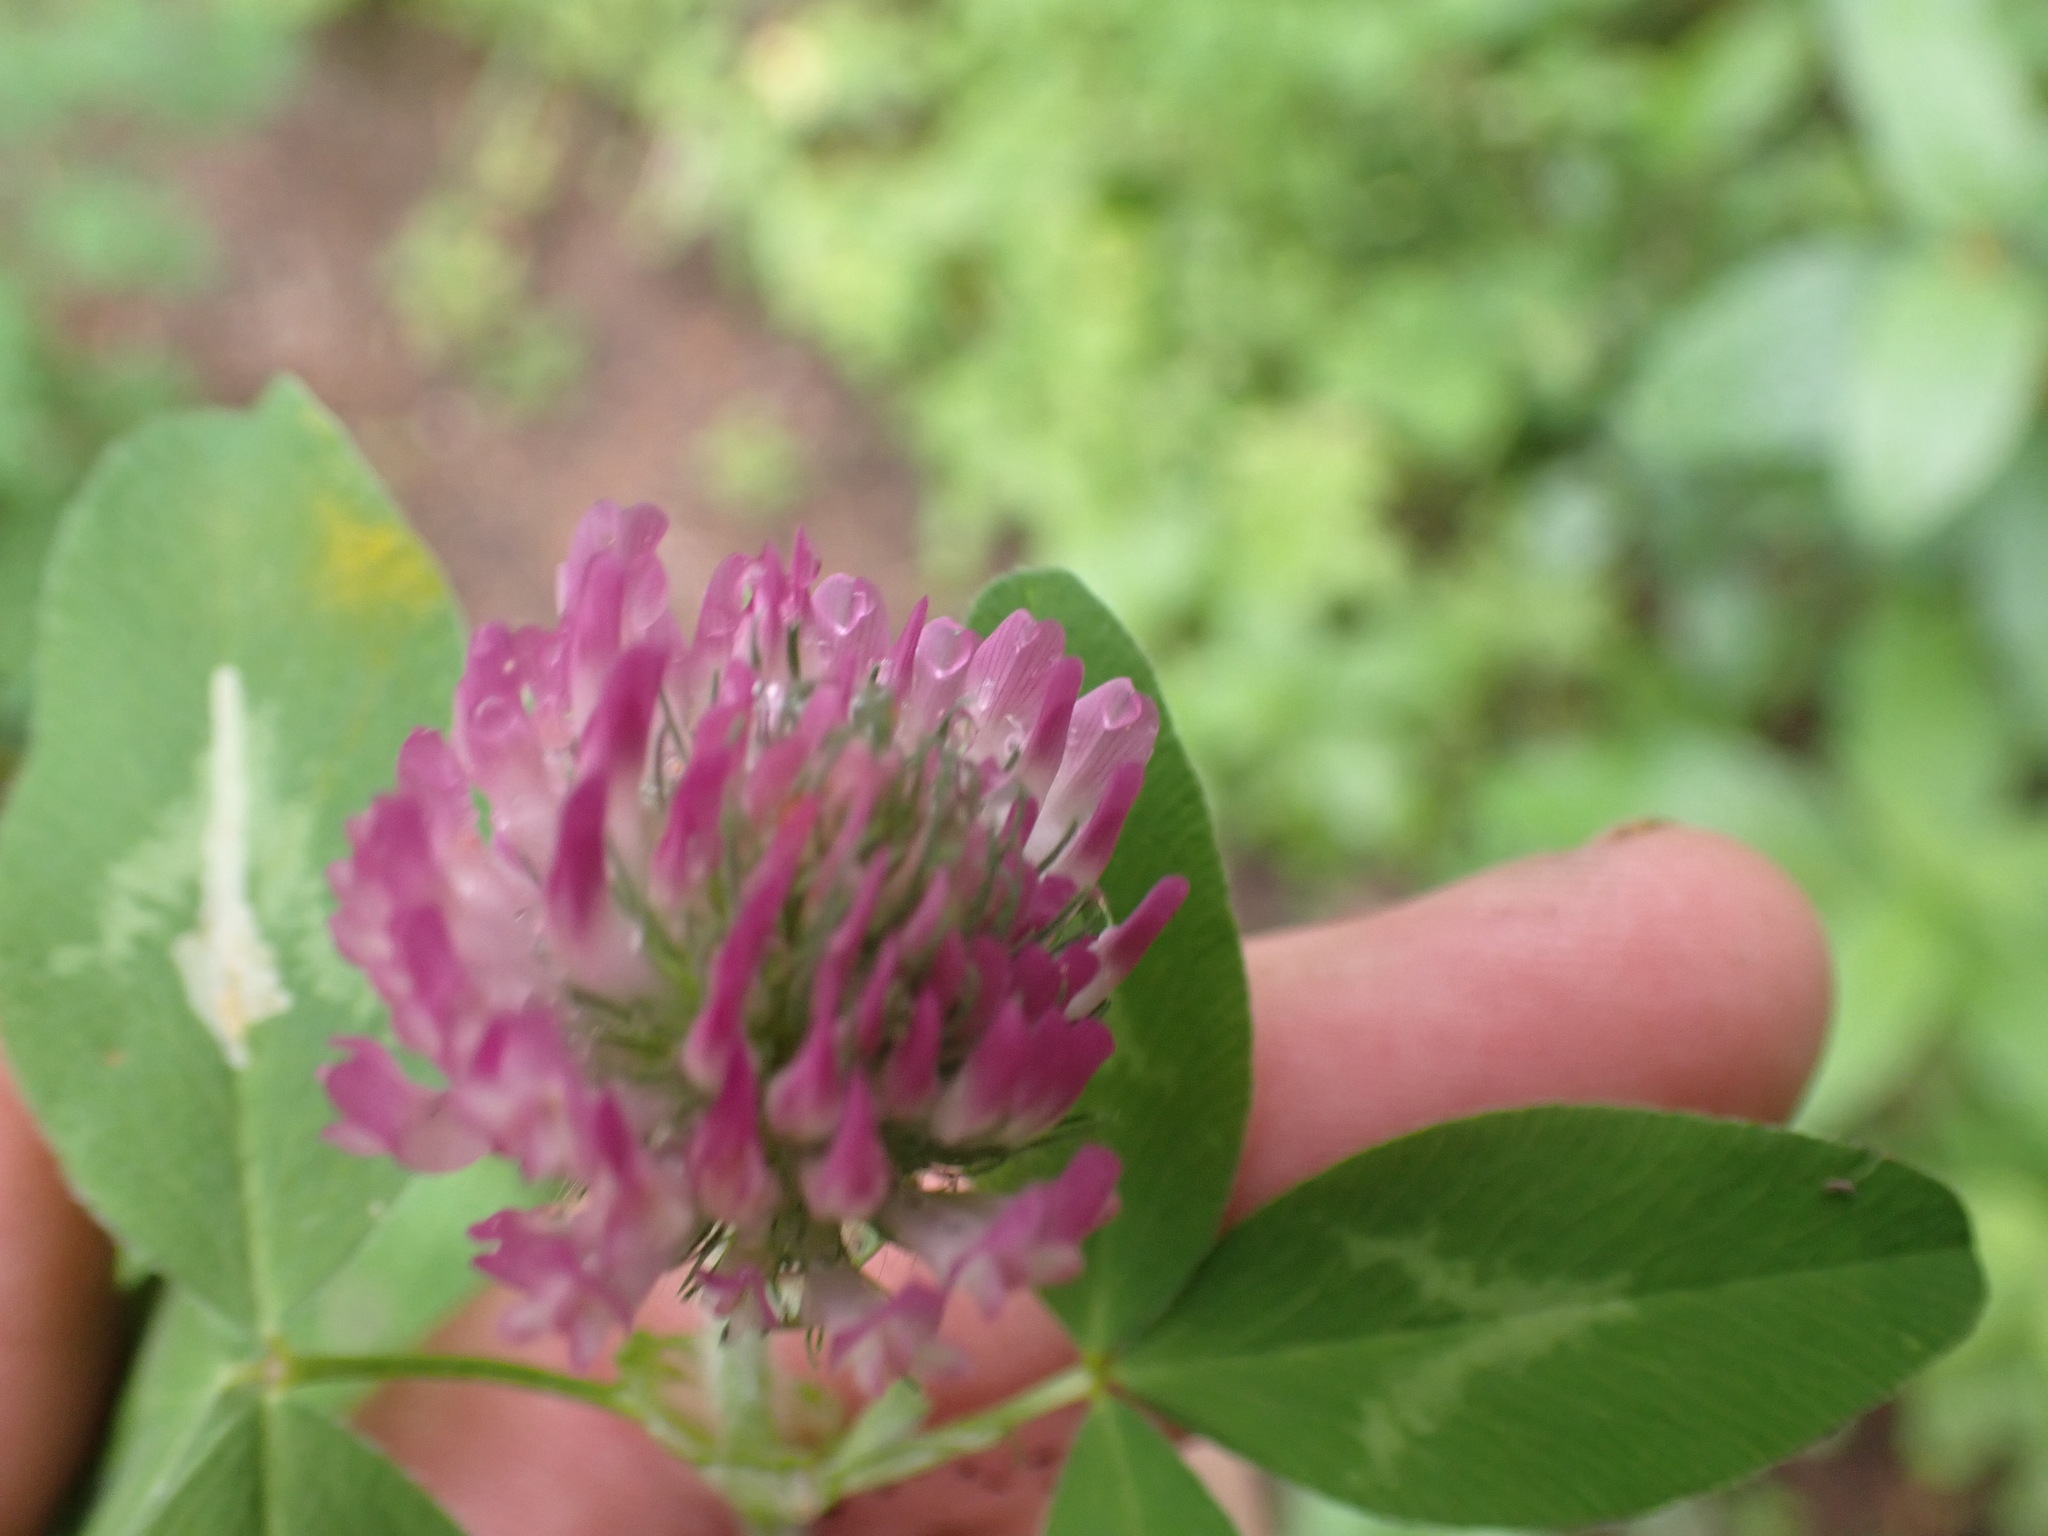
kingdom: Plantae
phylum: Tracheophyta
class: Magnoliopsida
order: Fabales
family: Fabaceae
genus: Trifolium
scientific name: Trifolium pratense
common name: Red clover
